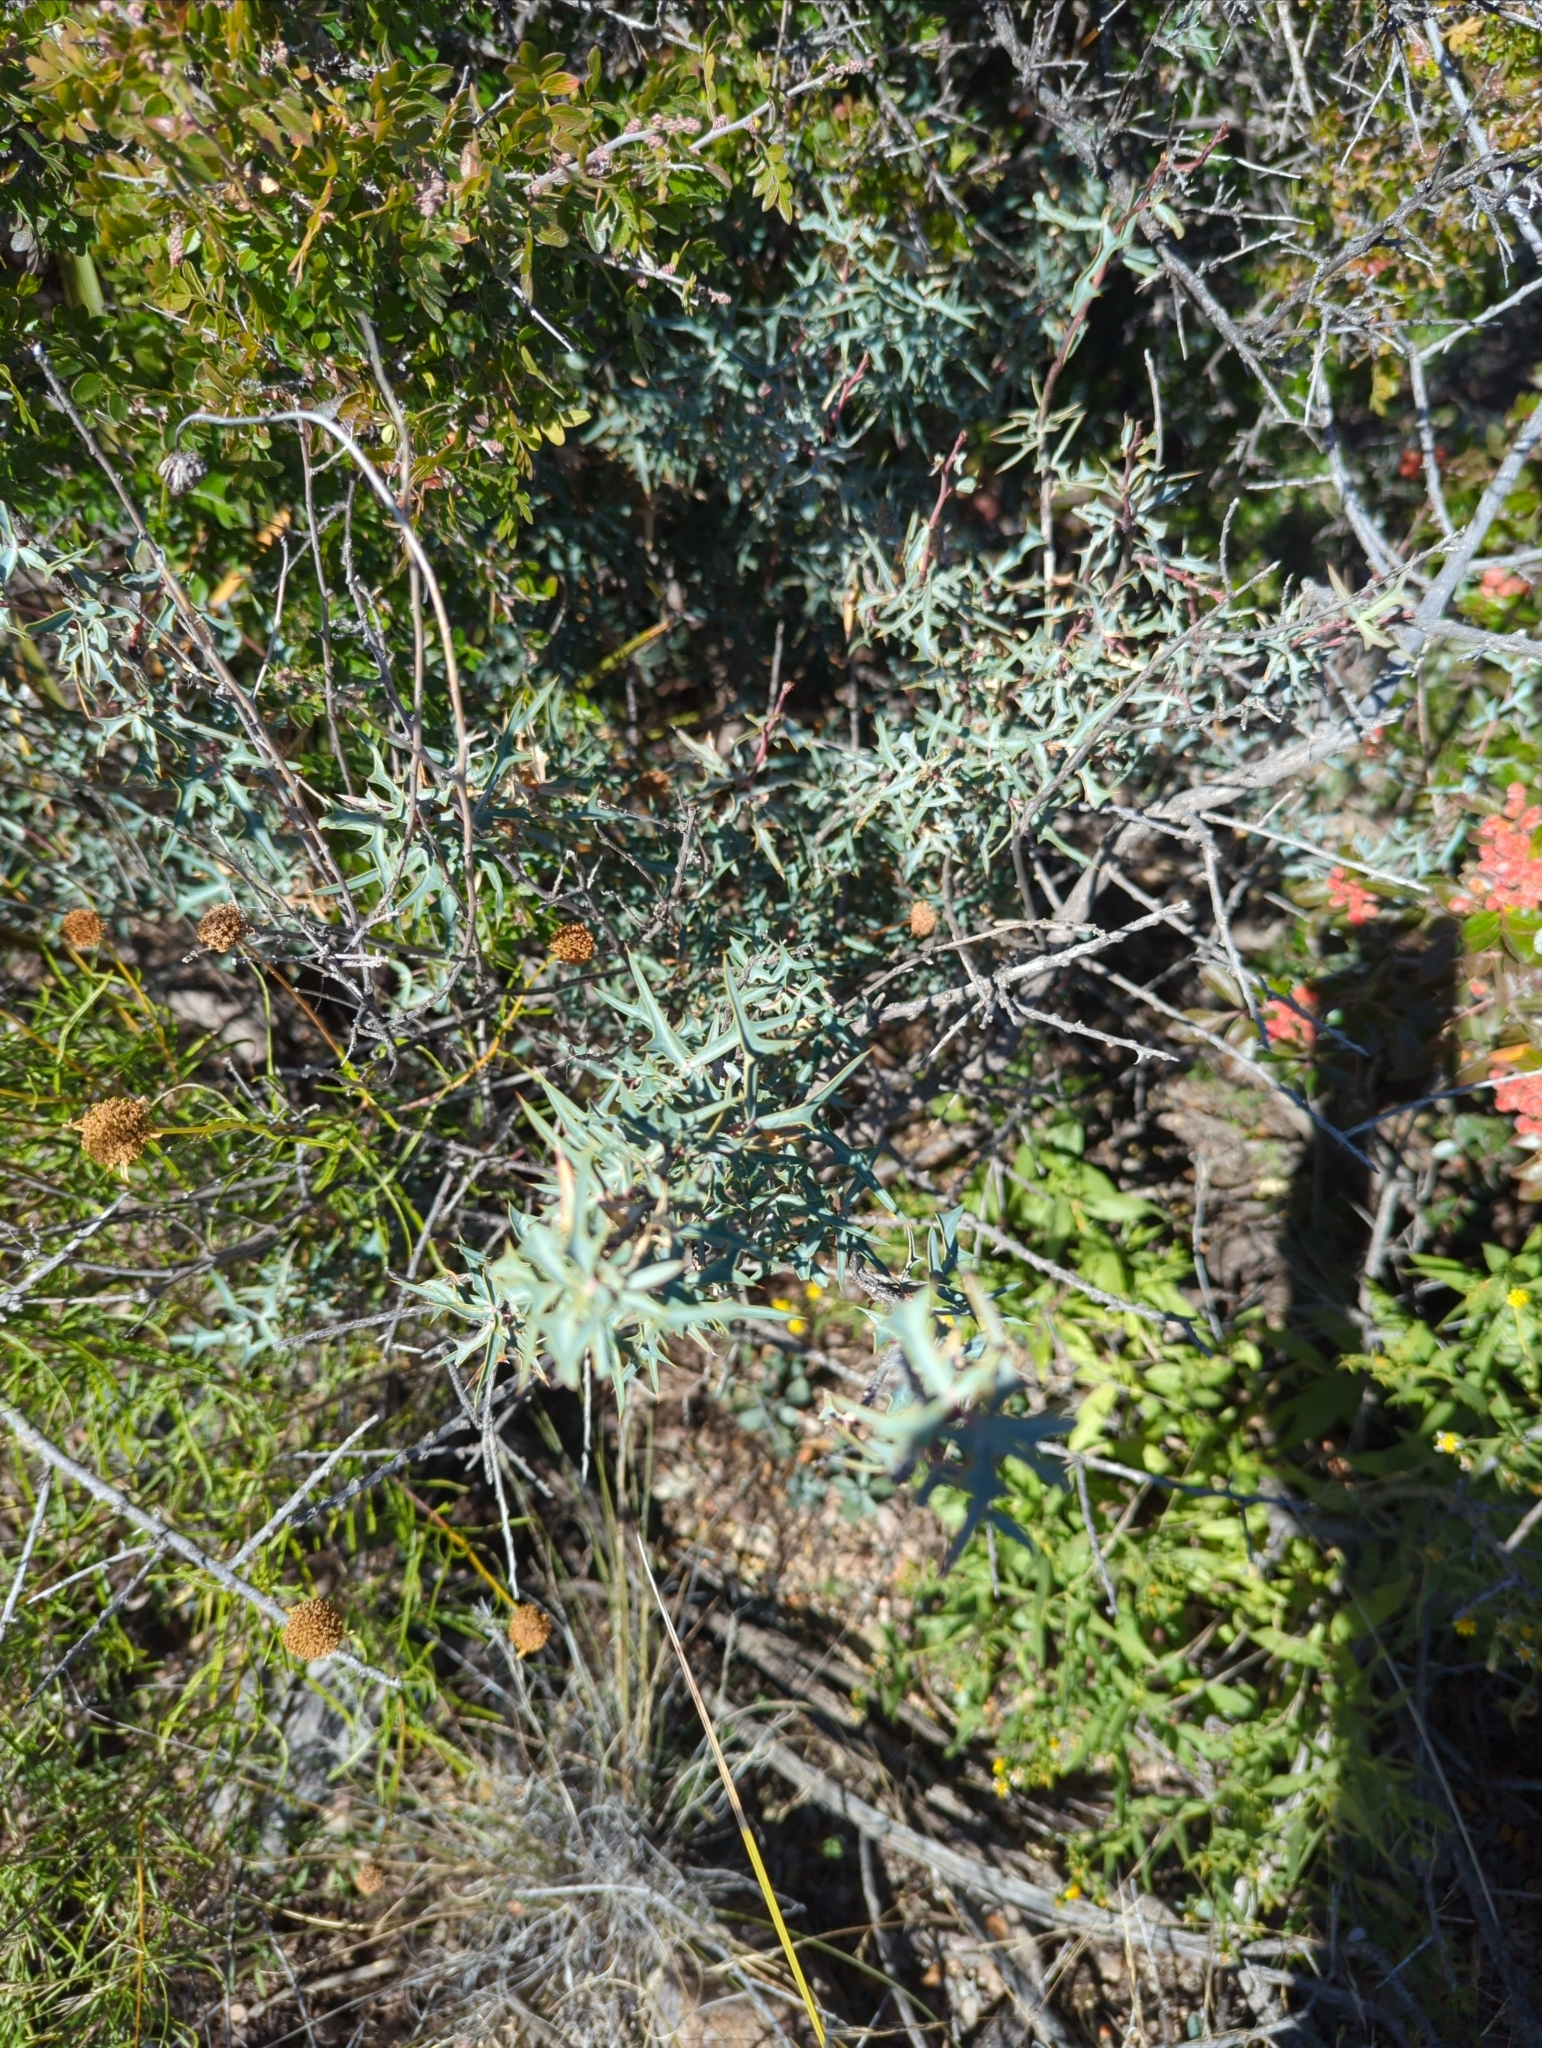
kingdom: Plantae
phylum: Tracheophyta
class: Magnoliopsida
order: Ranunculales
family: Berberidaceae
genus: Alloberberis
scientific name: Alloberberis trifoliolata
